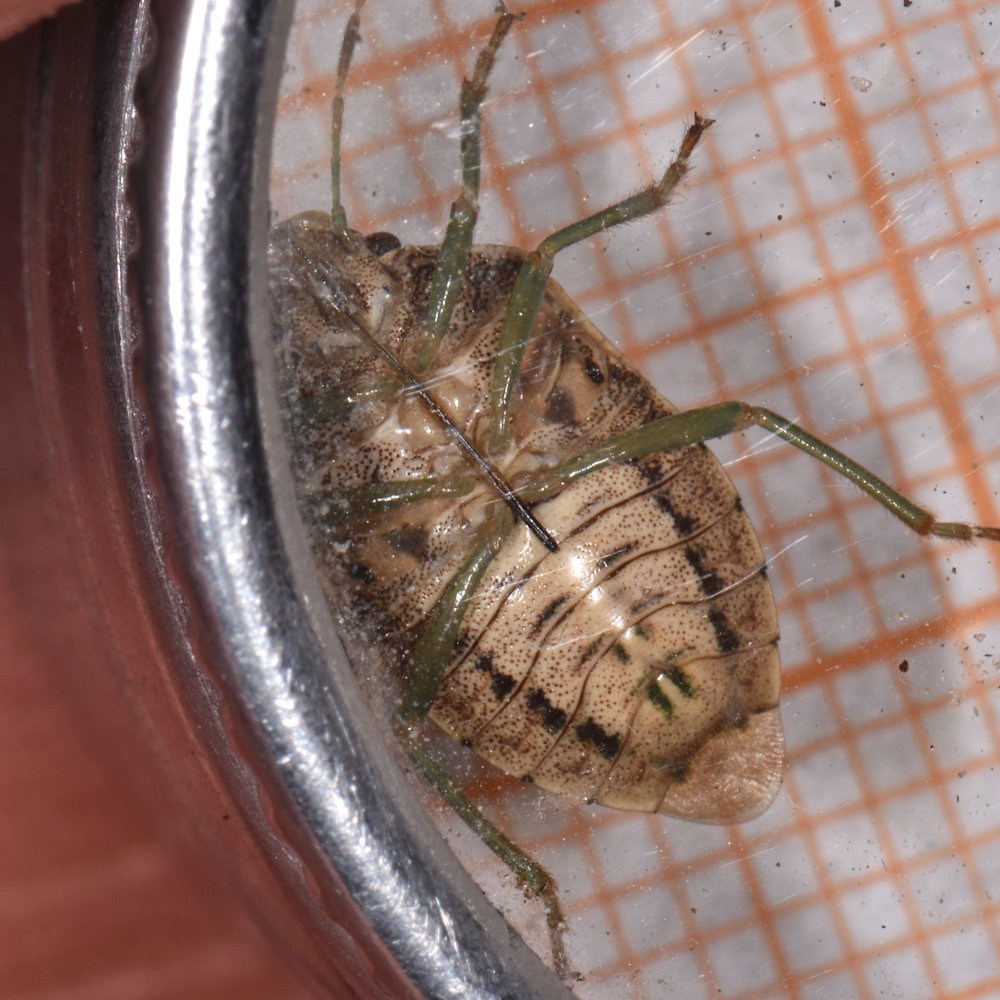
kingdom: Animalia
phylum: Arthropoda
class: Insecta
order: Hemiptera
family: Pentatomidae
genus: Banasa
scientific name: Banasa sordida
